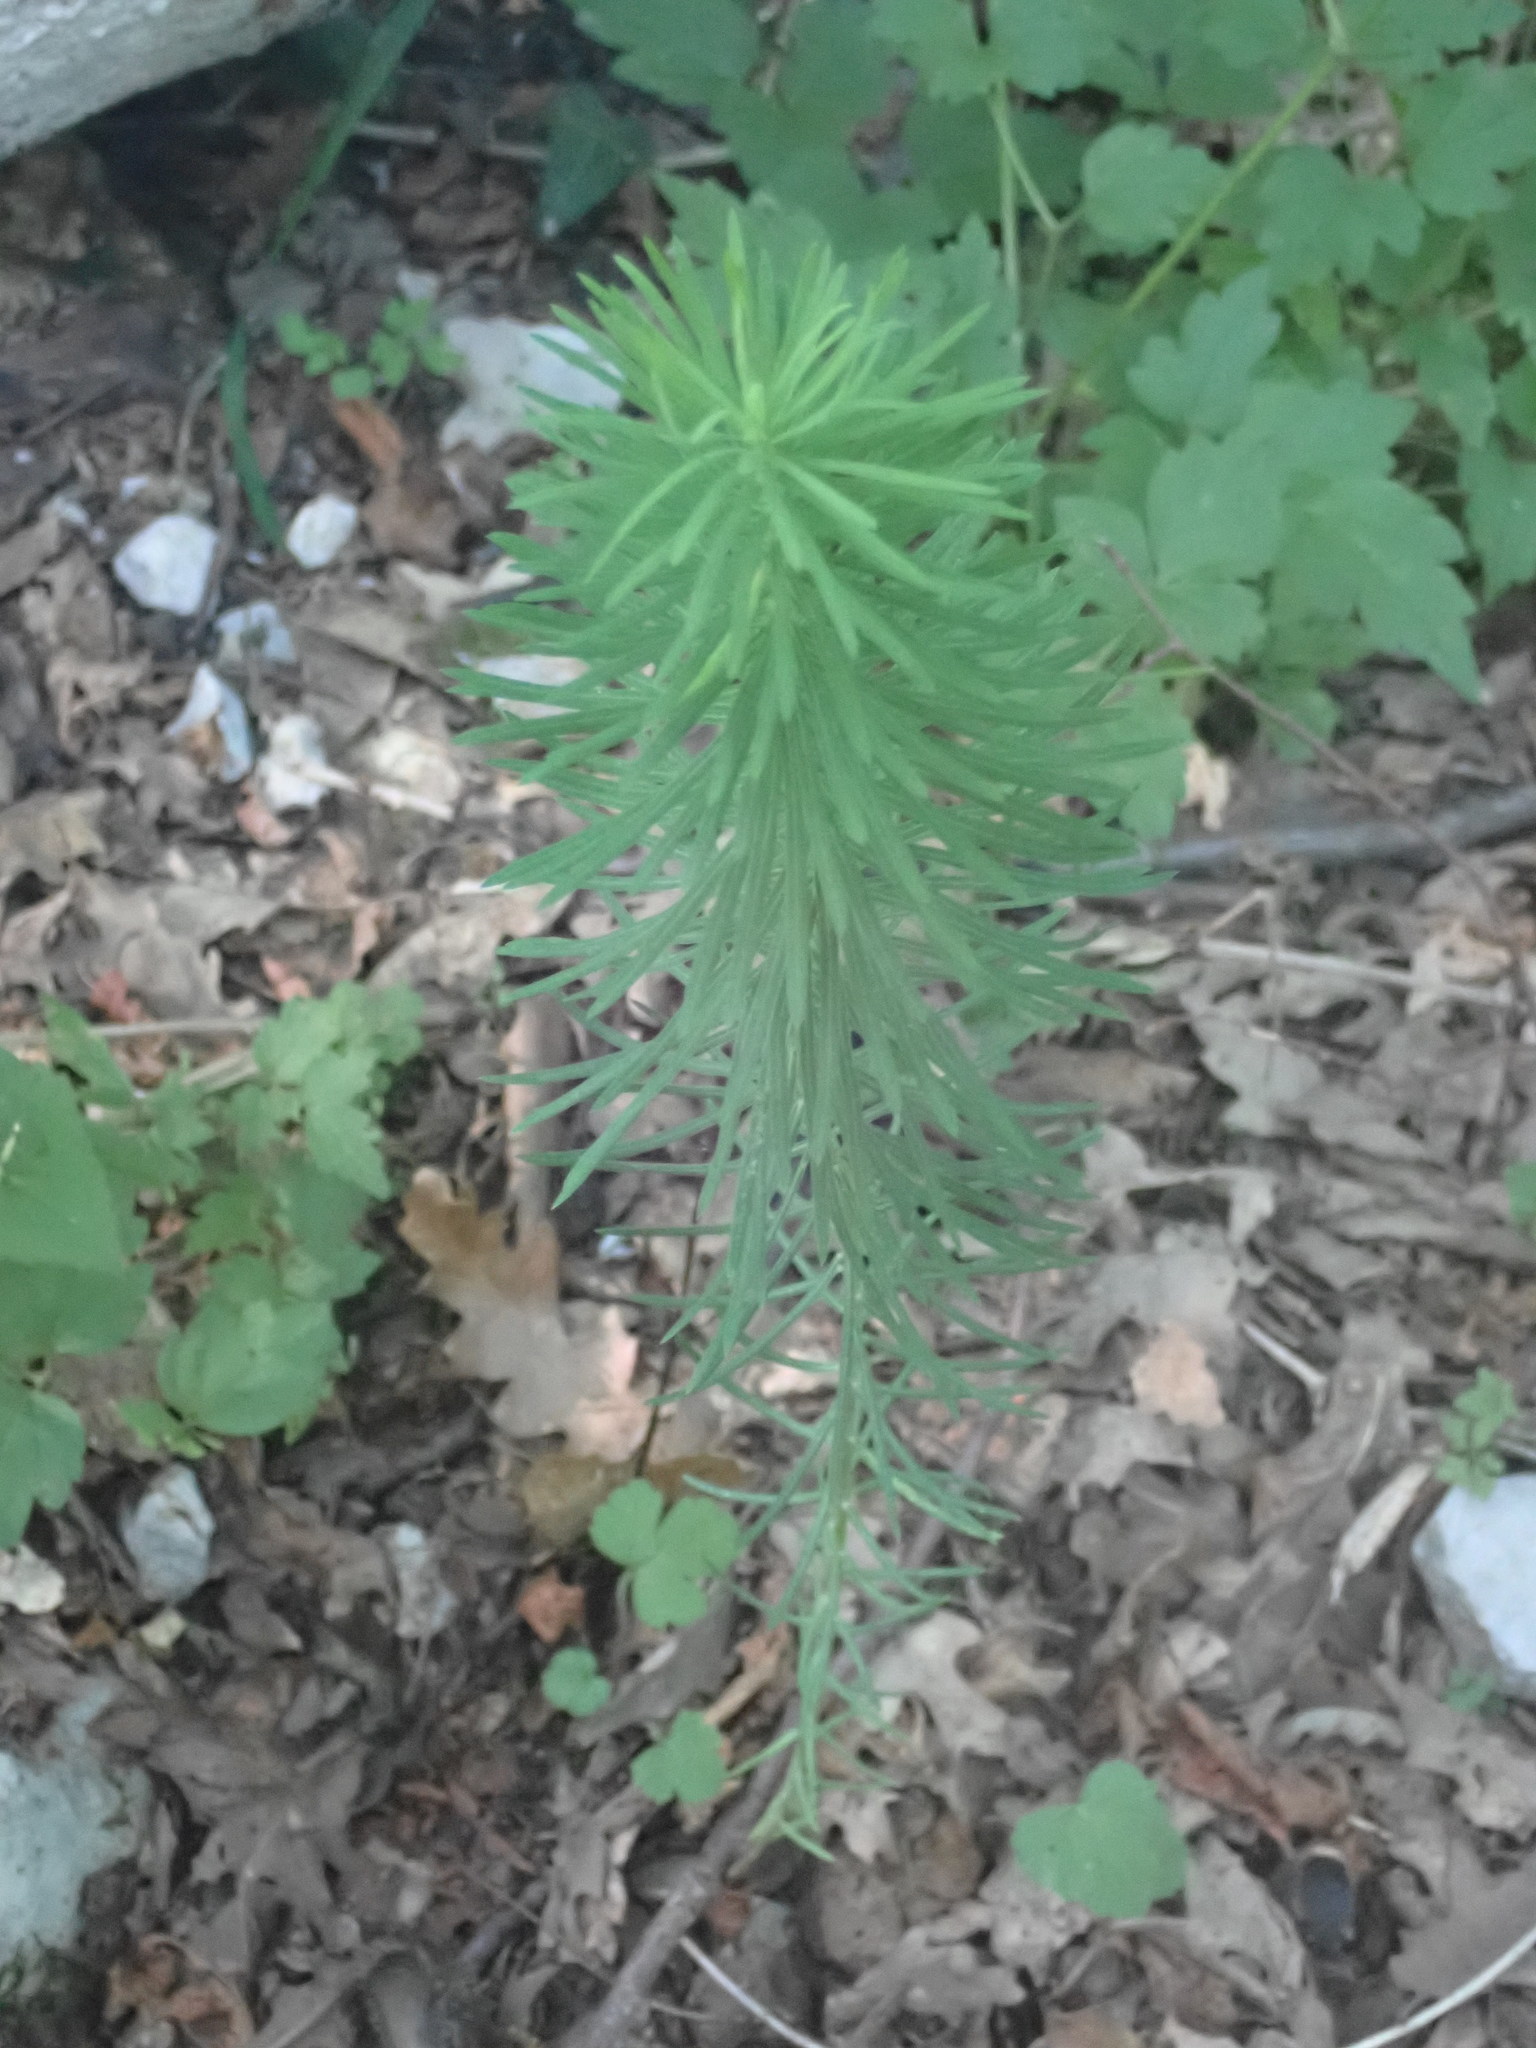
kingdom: Plantae
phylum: Tracheophyta
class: Magnoliopsida
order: Malpighiales
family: Euphorbiaceae
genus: Euphorbia
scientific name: Euphorbia cyparissias
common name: Cypress spurge
